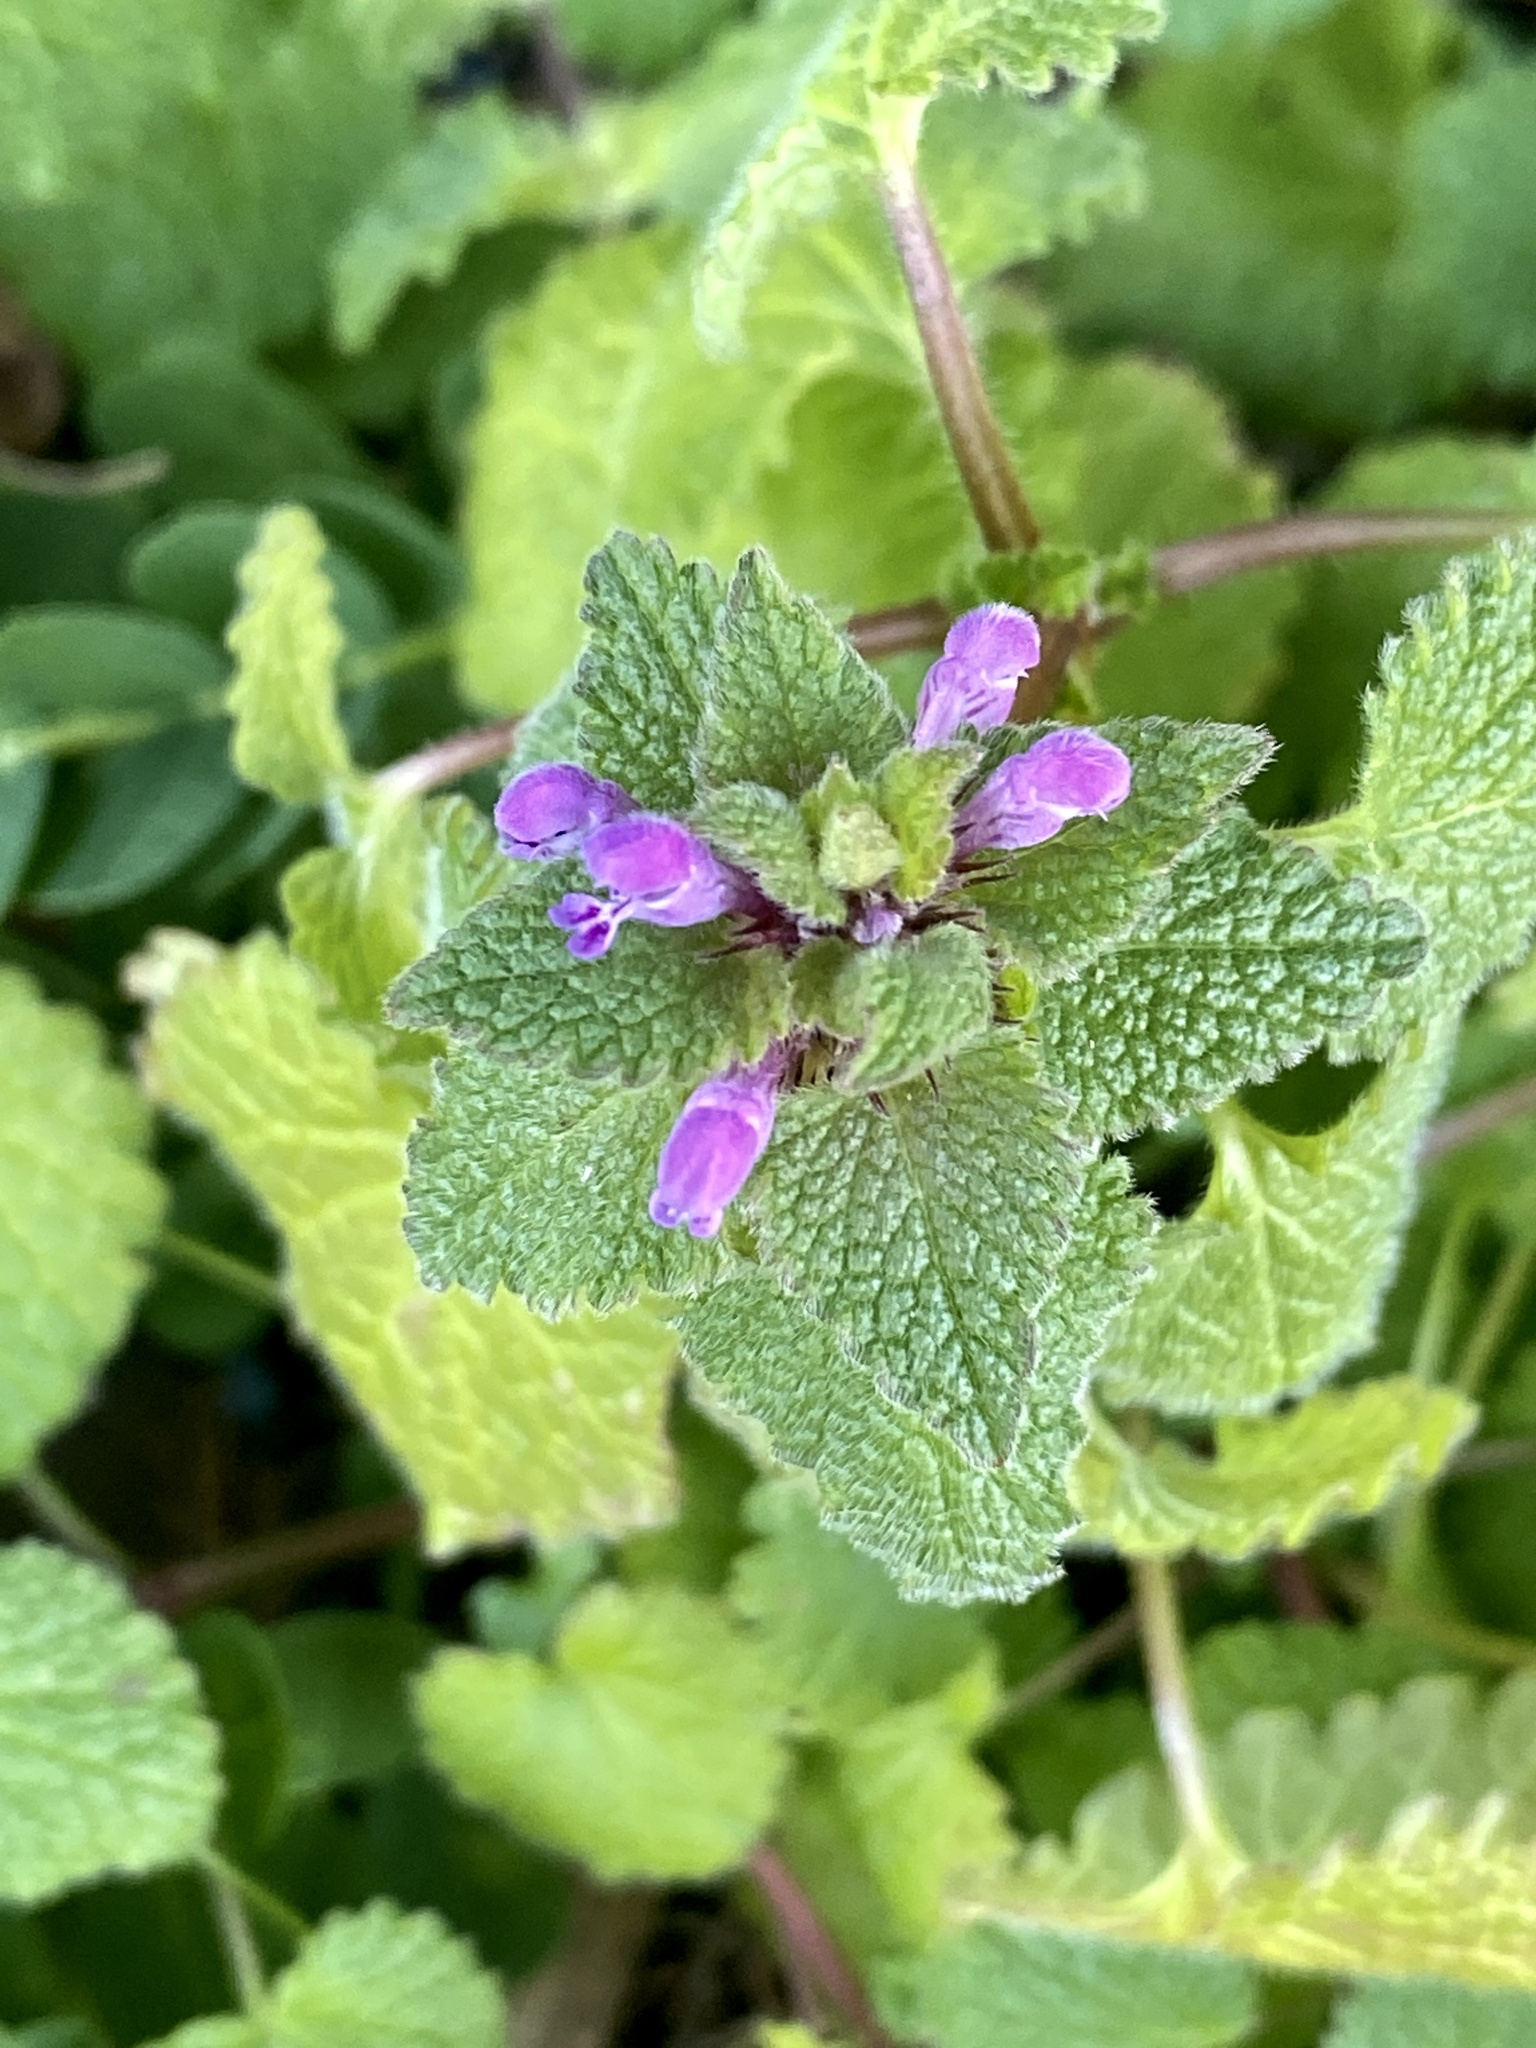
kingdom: Plantae
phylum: Tracheophyta
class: Magnoliopsida
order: Lamiales
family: Lamiaceae
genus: Lamium
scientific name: Lamium purpureum
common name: Red dead-nettle
